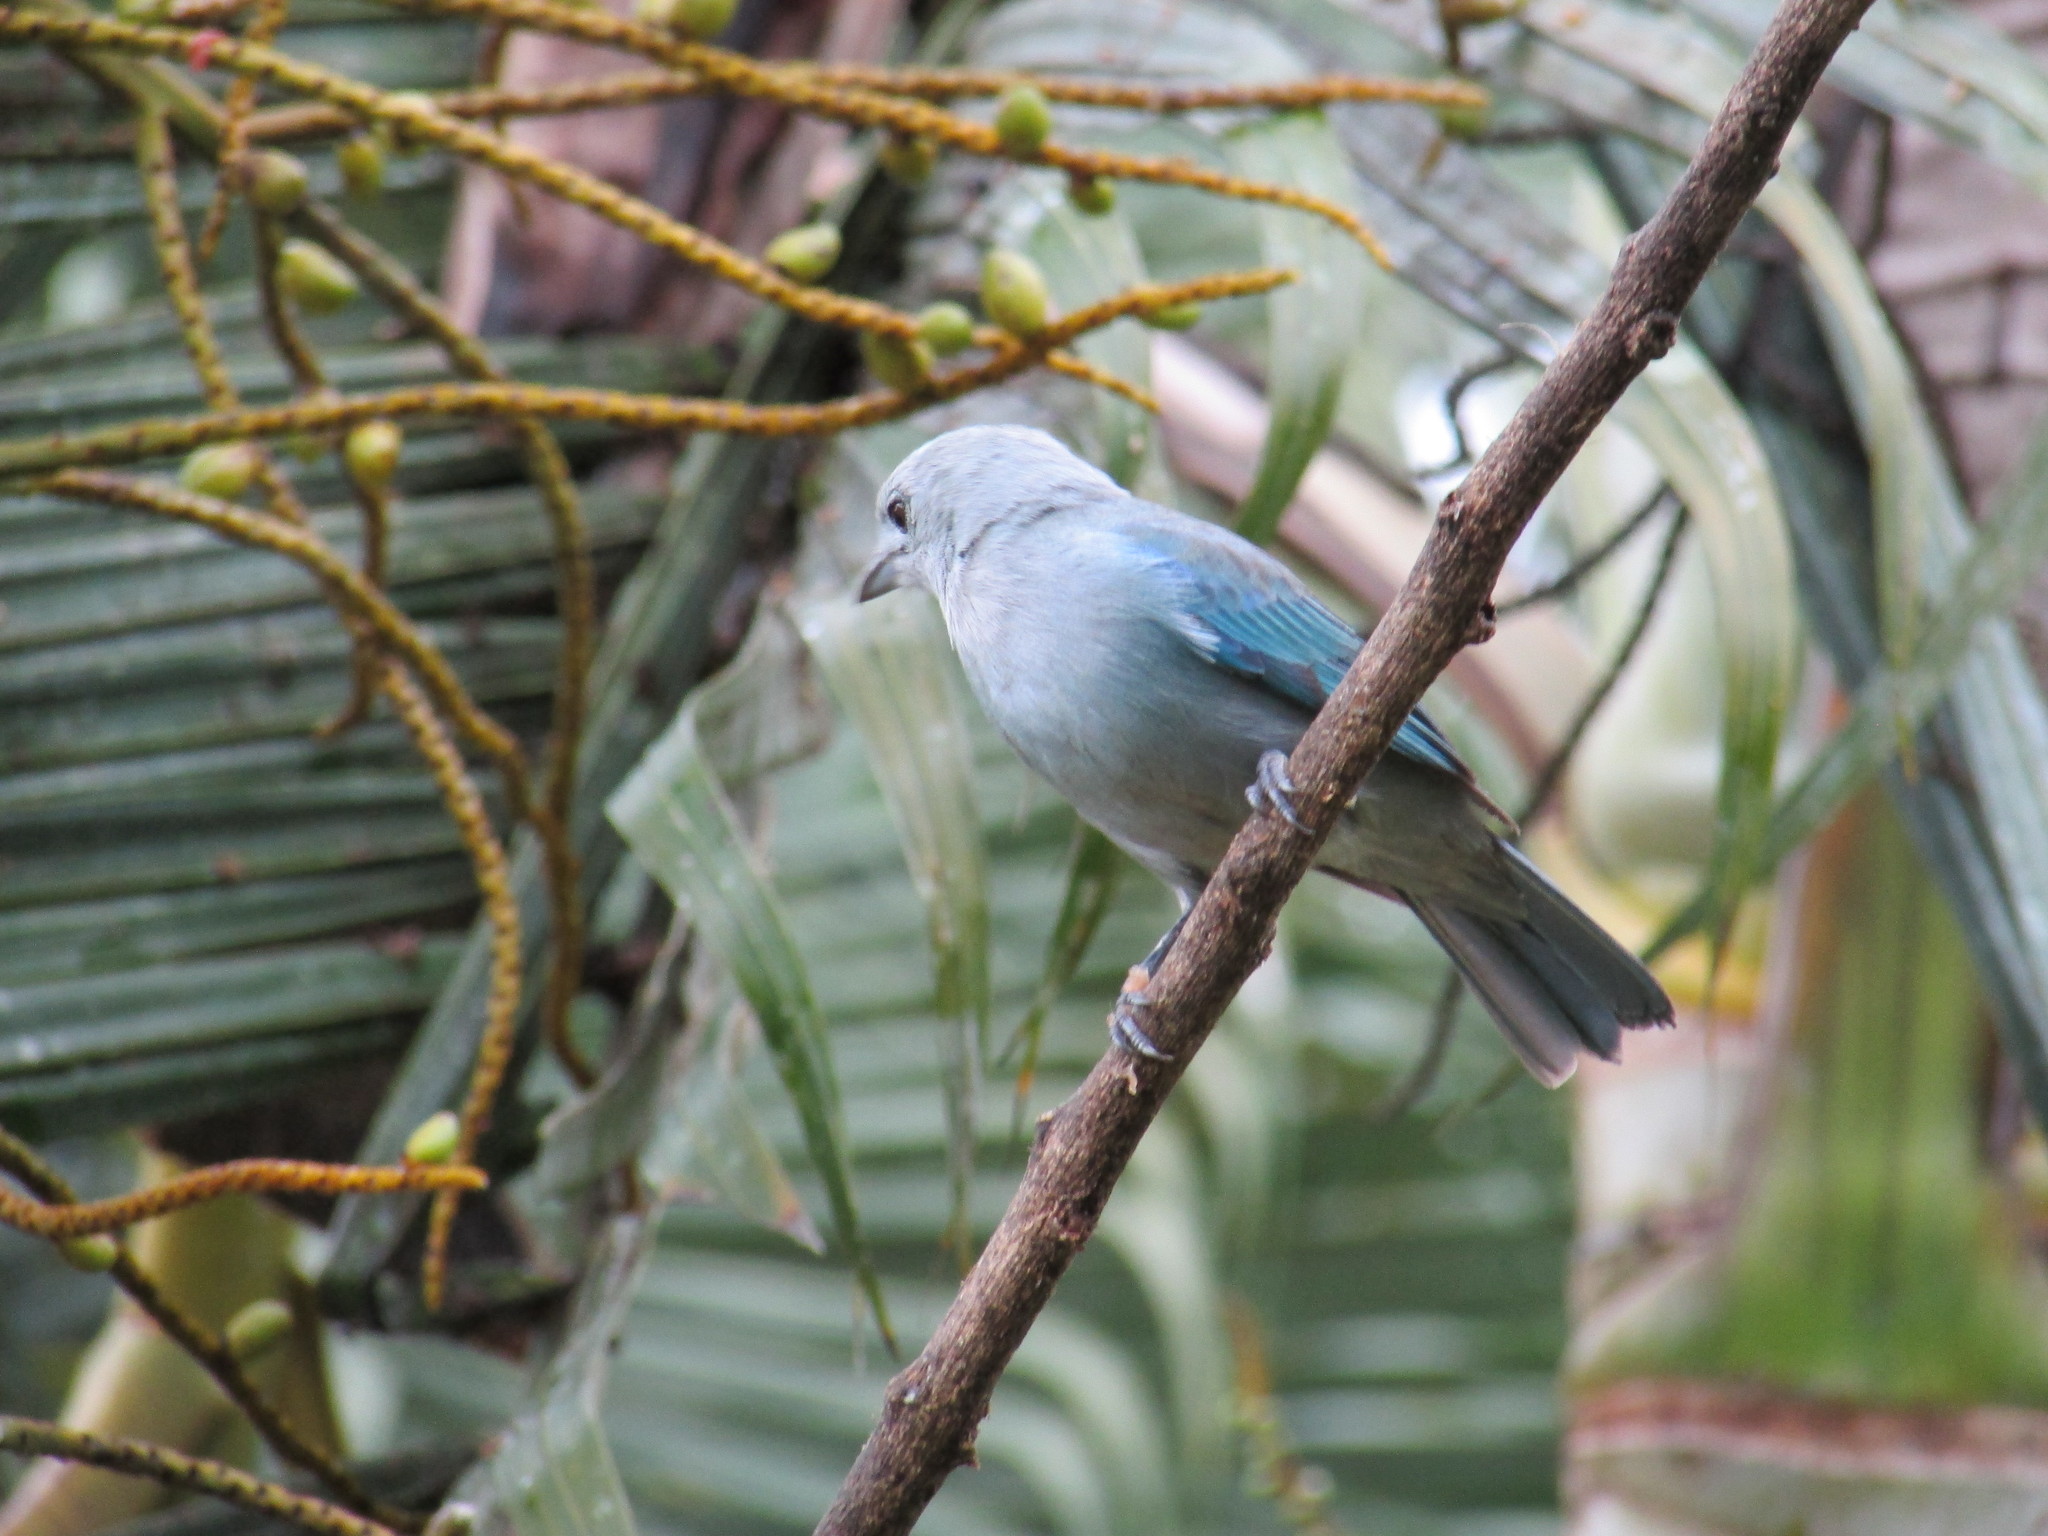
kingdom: Animalia
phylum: Chordata
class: Aves
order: Passeriformes
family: Thraupidae
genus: Thraupis
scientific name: Thraupis episcopus
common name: Blue-grey tanager
